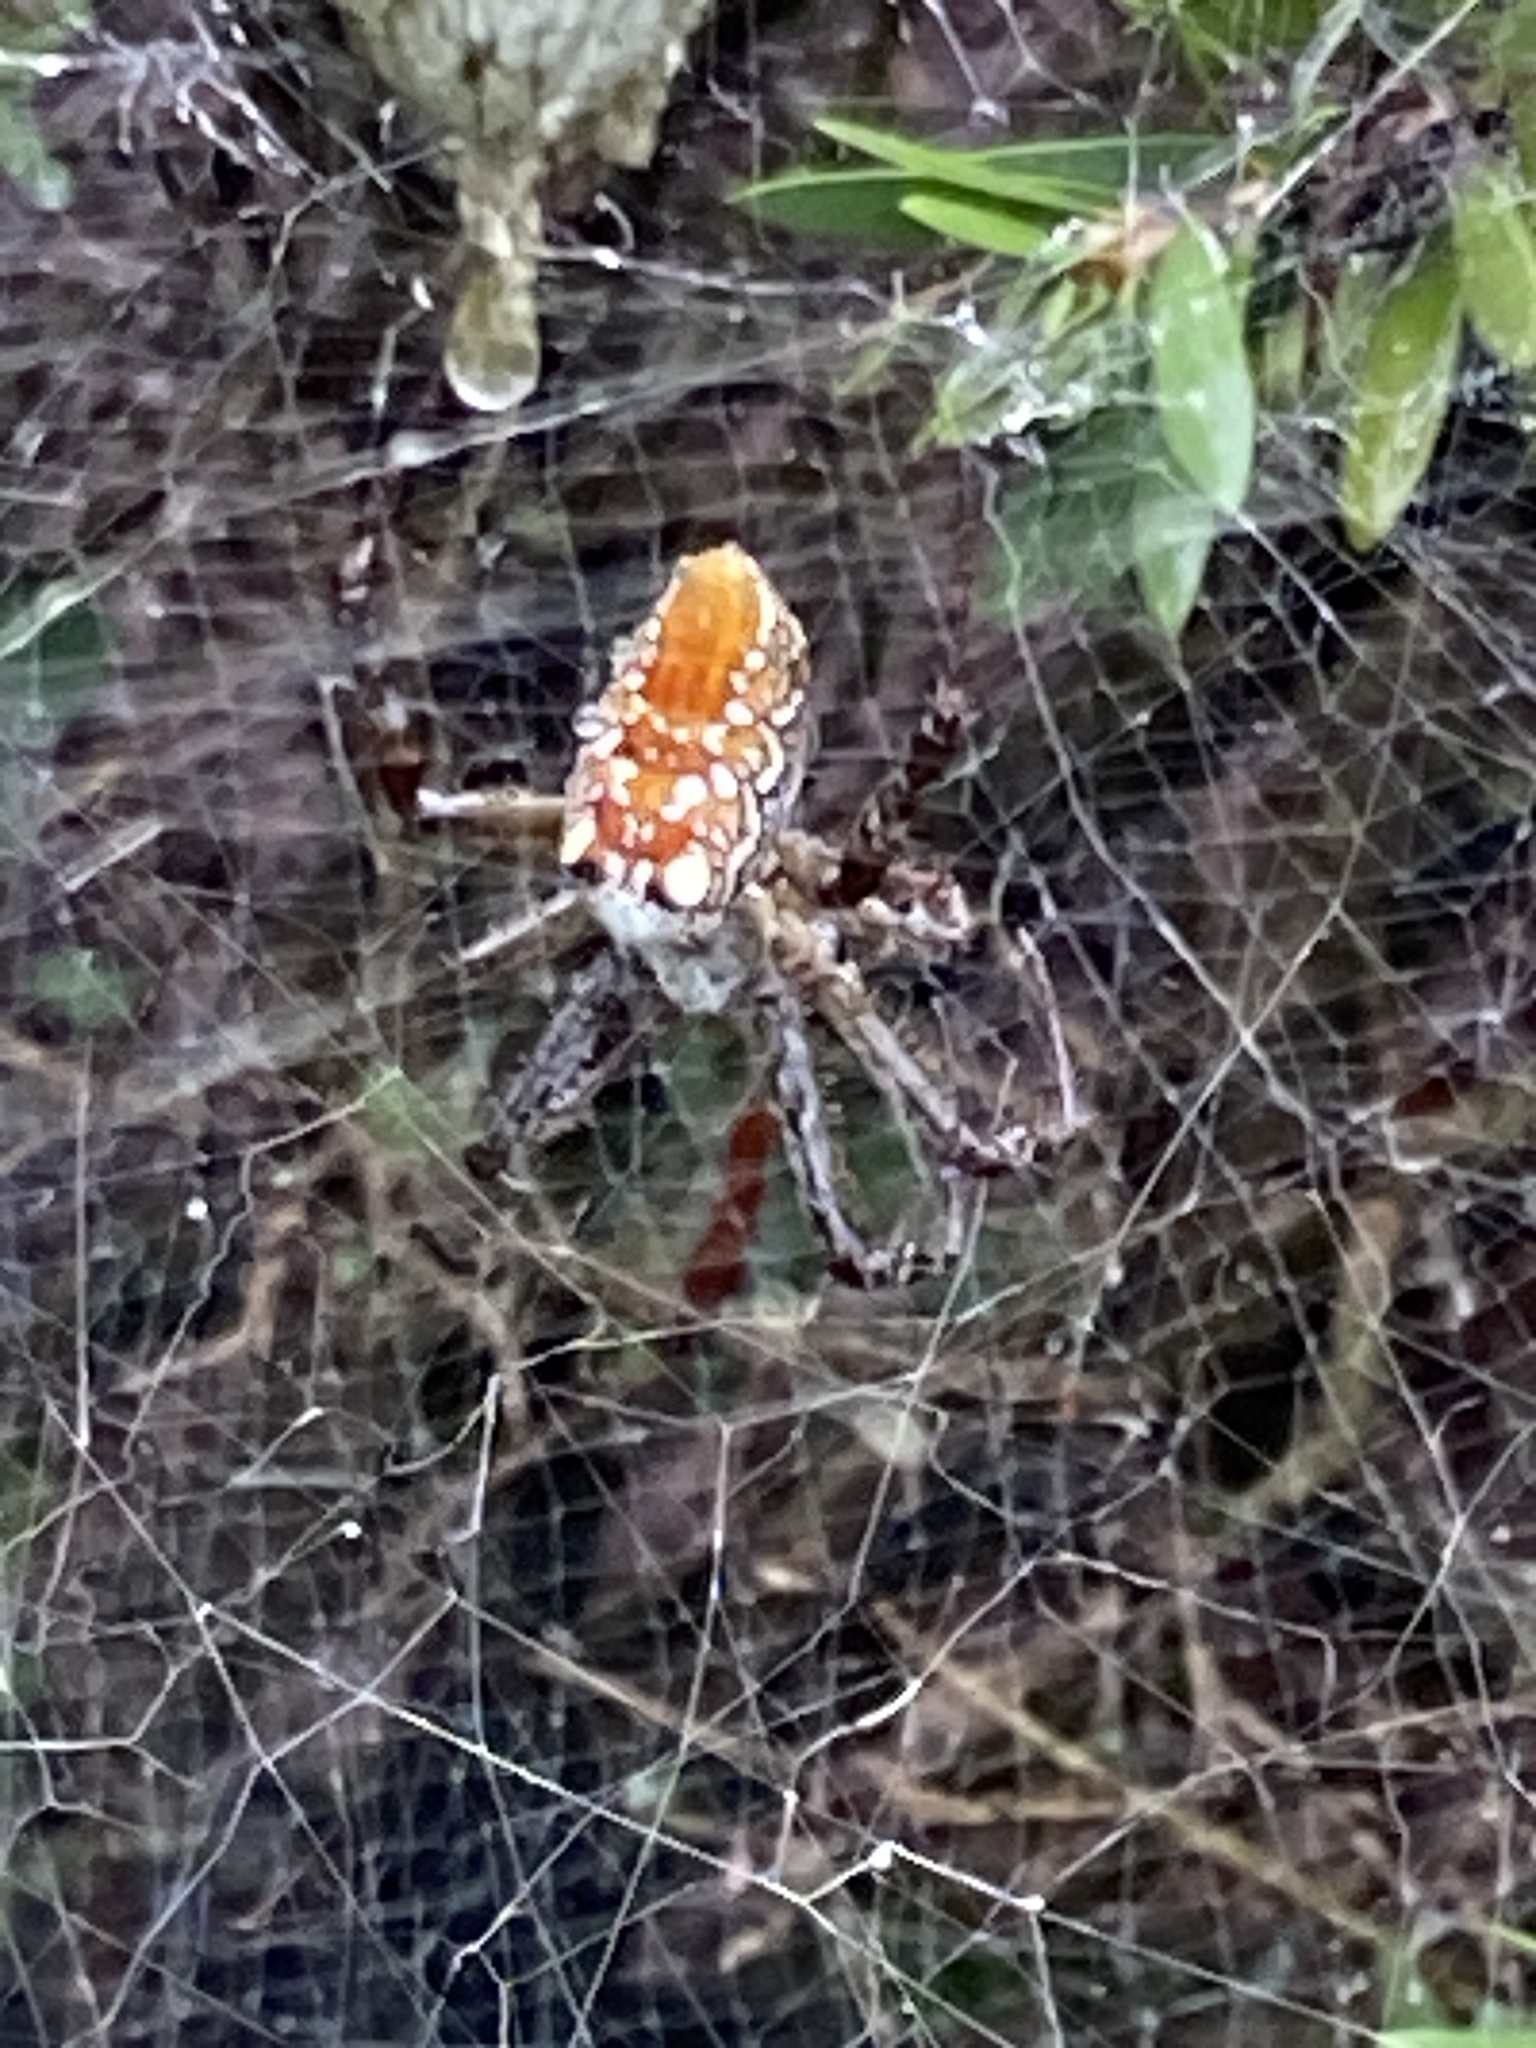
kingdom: Chromista
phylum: Ochrophyta
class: Dictyochophyceae
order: Pedinellales
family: Cyrtophoraceae
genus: Cyrtophora
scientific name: Cyrtophora moluccensis
